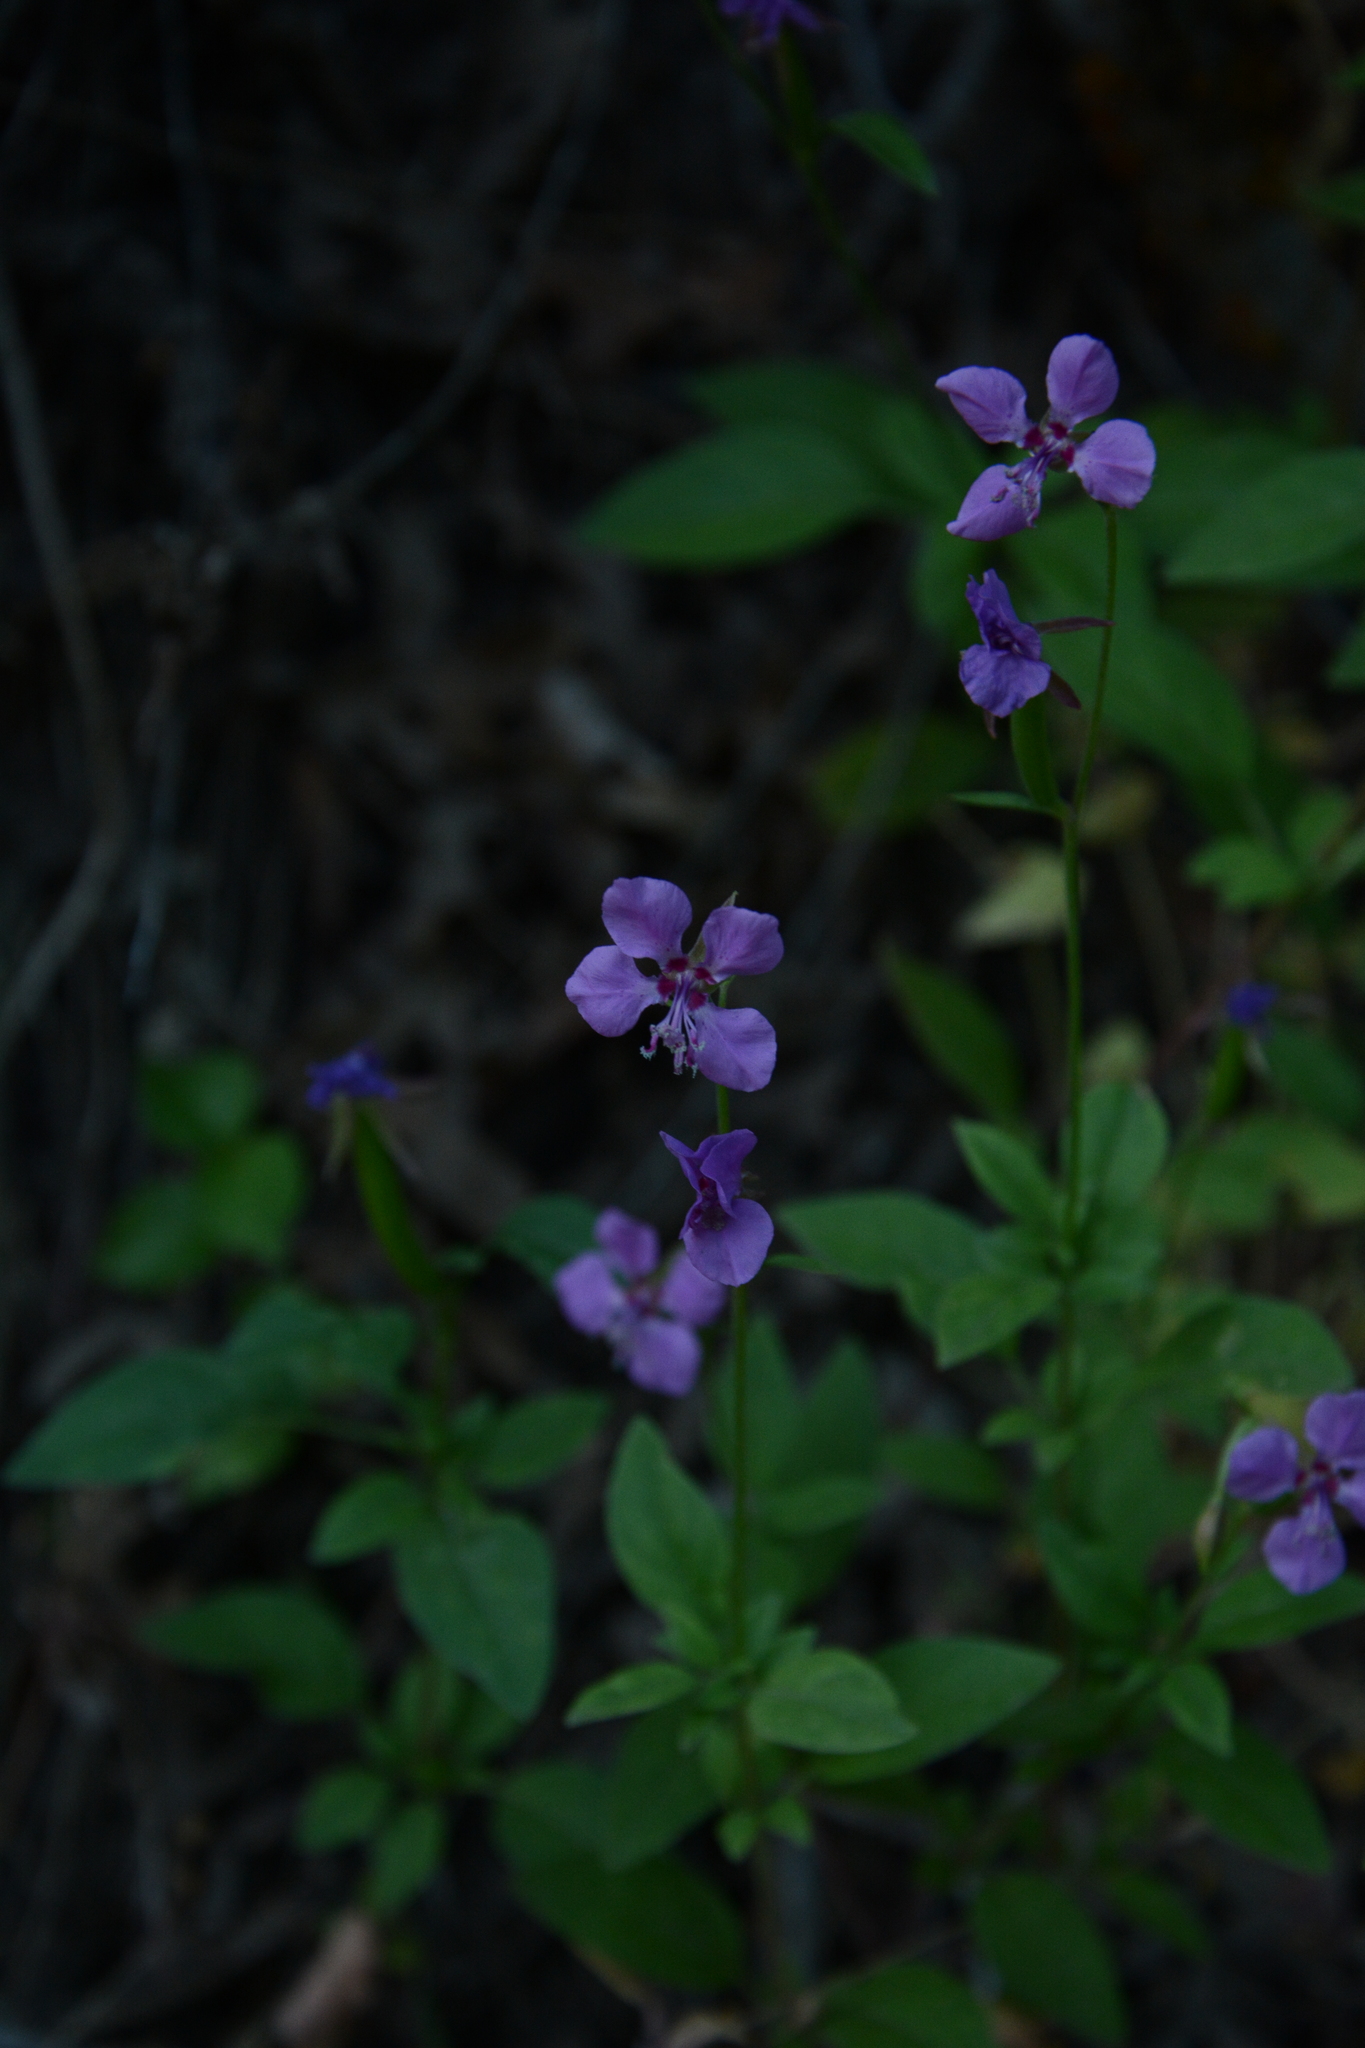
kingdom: Plantae
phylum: Tracheophyta
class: Magnoliopsida
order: Myrtales
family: Onagraceae
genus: Clarkia
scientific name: Clarkia rhomboidea
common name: Broadleaf clarkia
